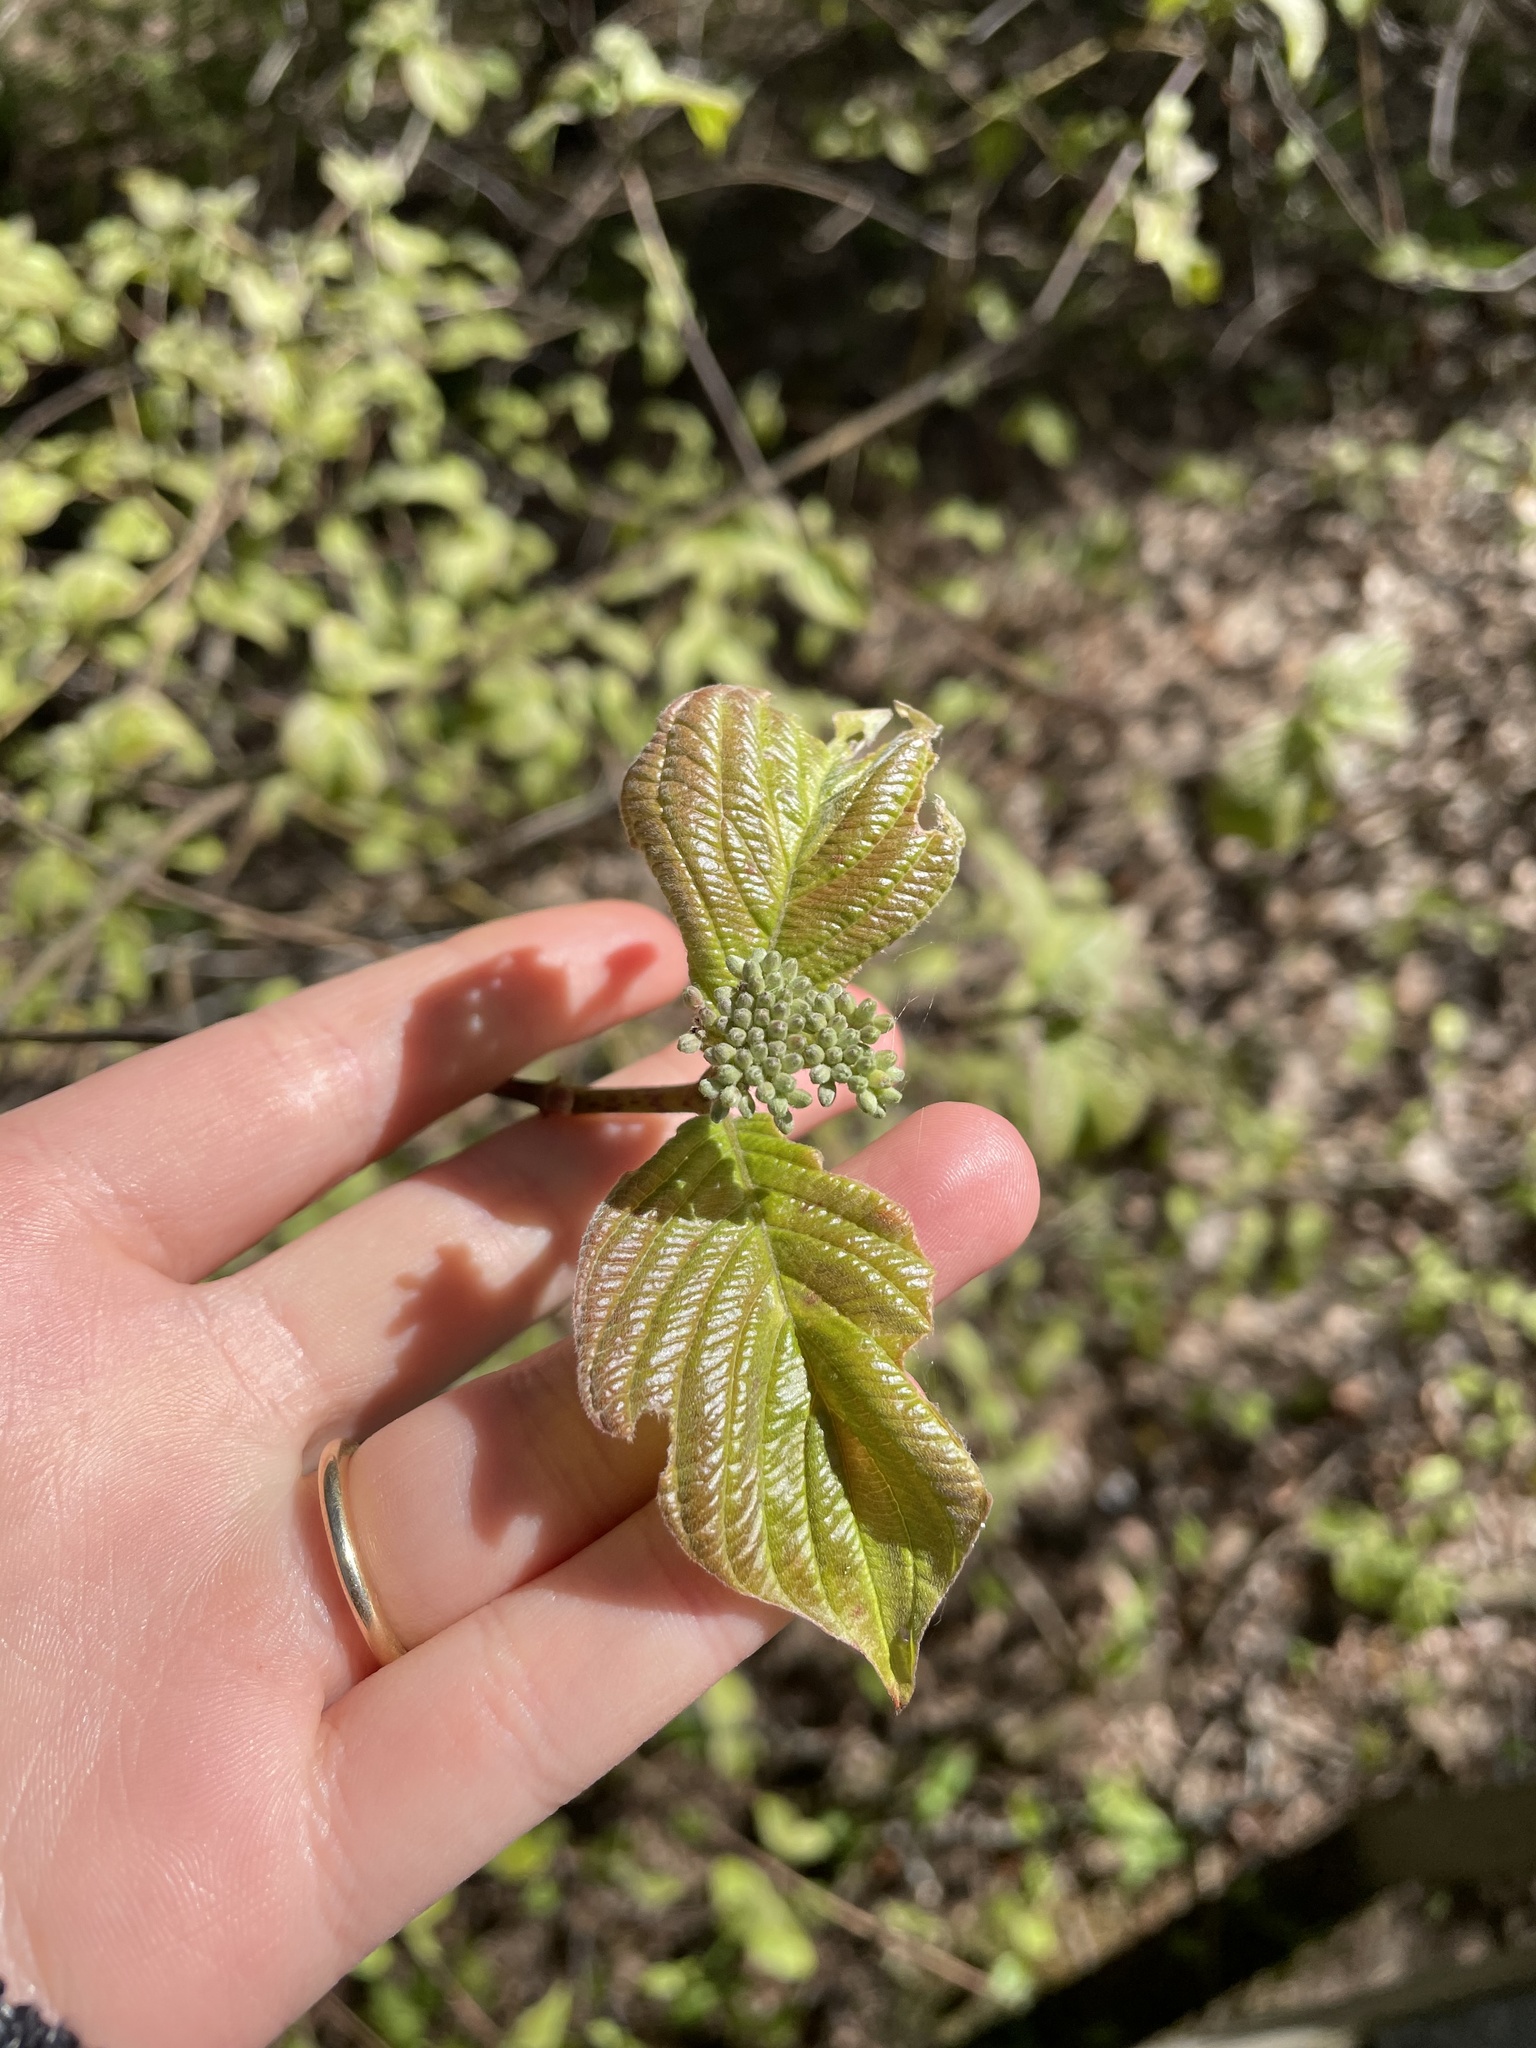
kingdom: Plantae
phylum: Tracheophyta
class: Magnoliopsida
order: Cornales
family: Cornaceae
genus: Cornus
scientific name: Cornus rugosa
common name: Round-leaf dogwood
